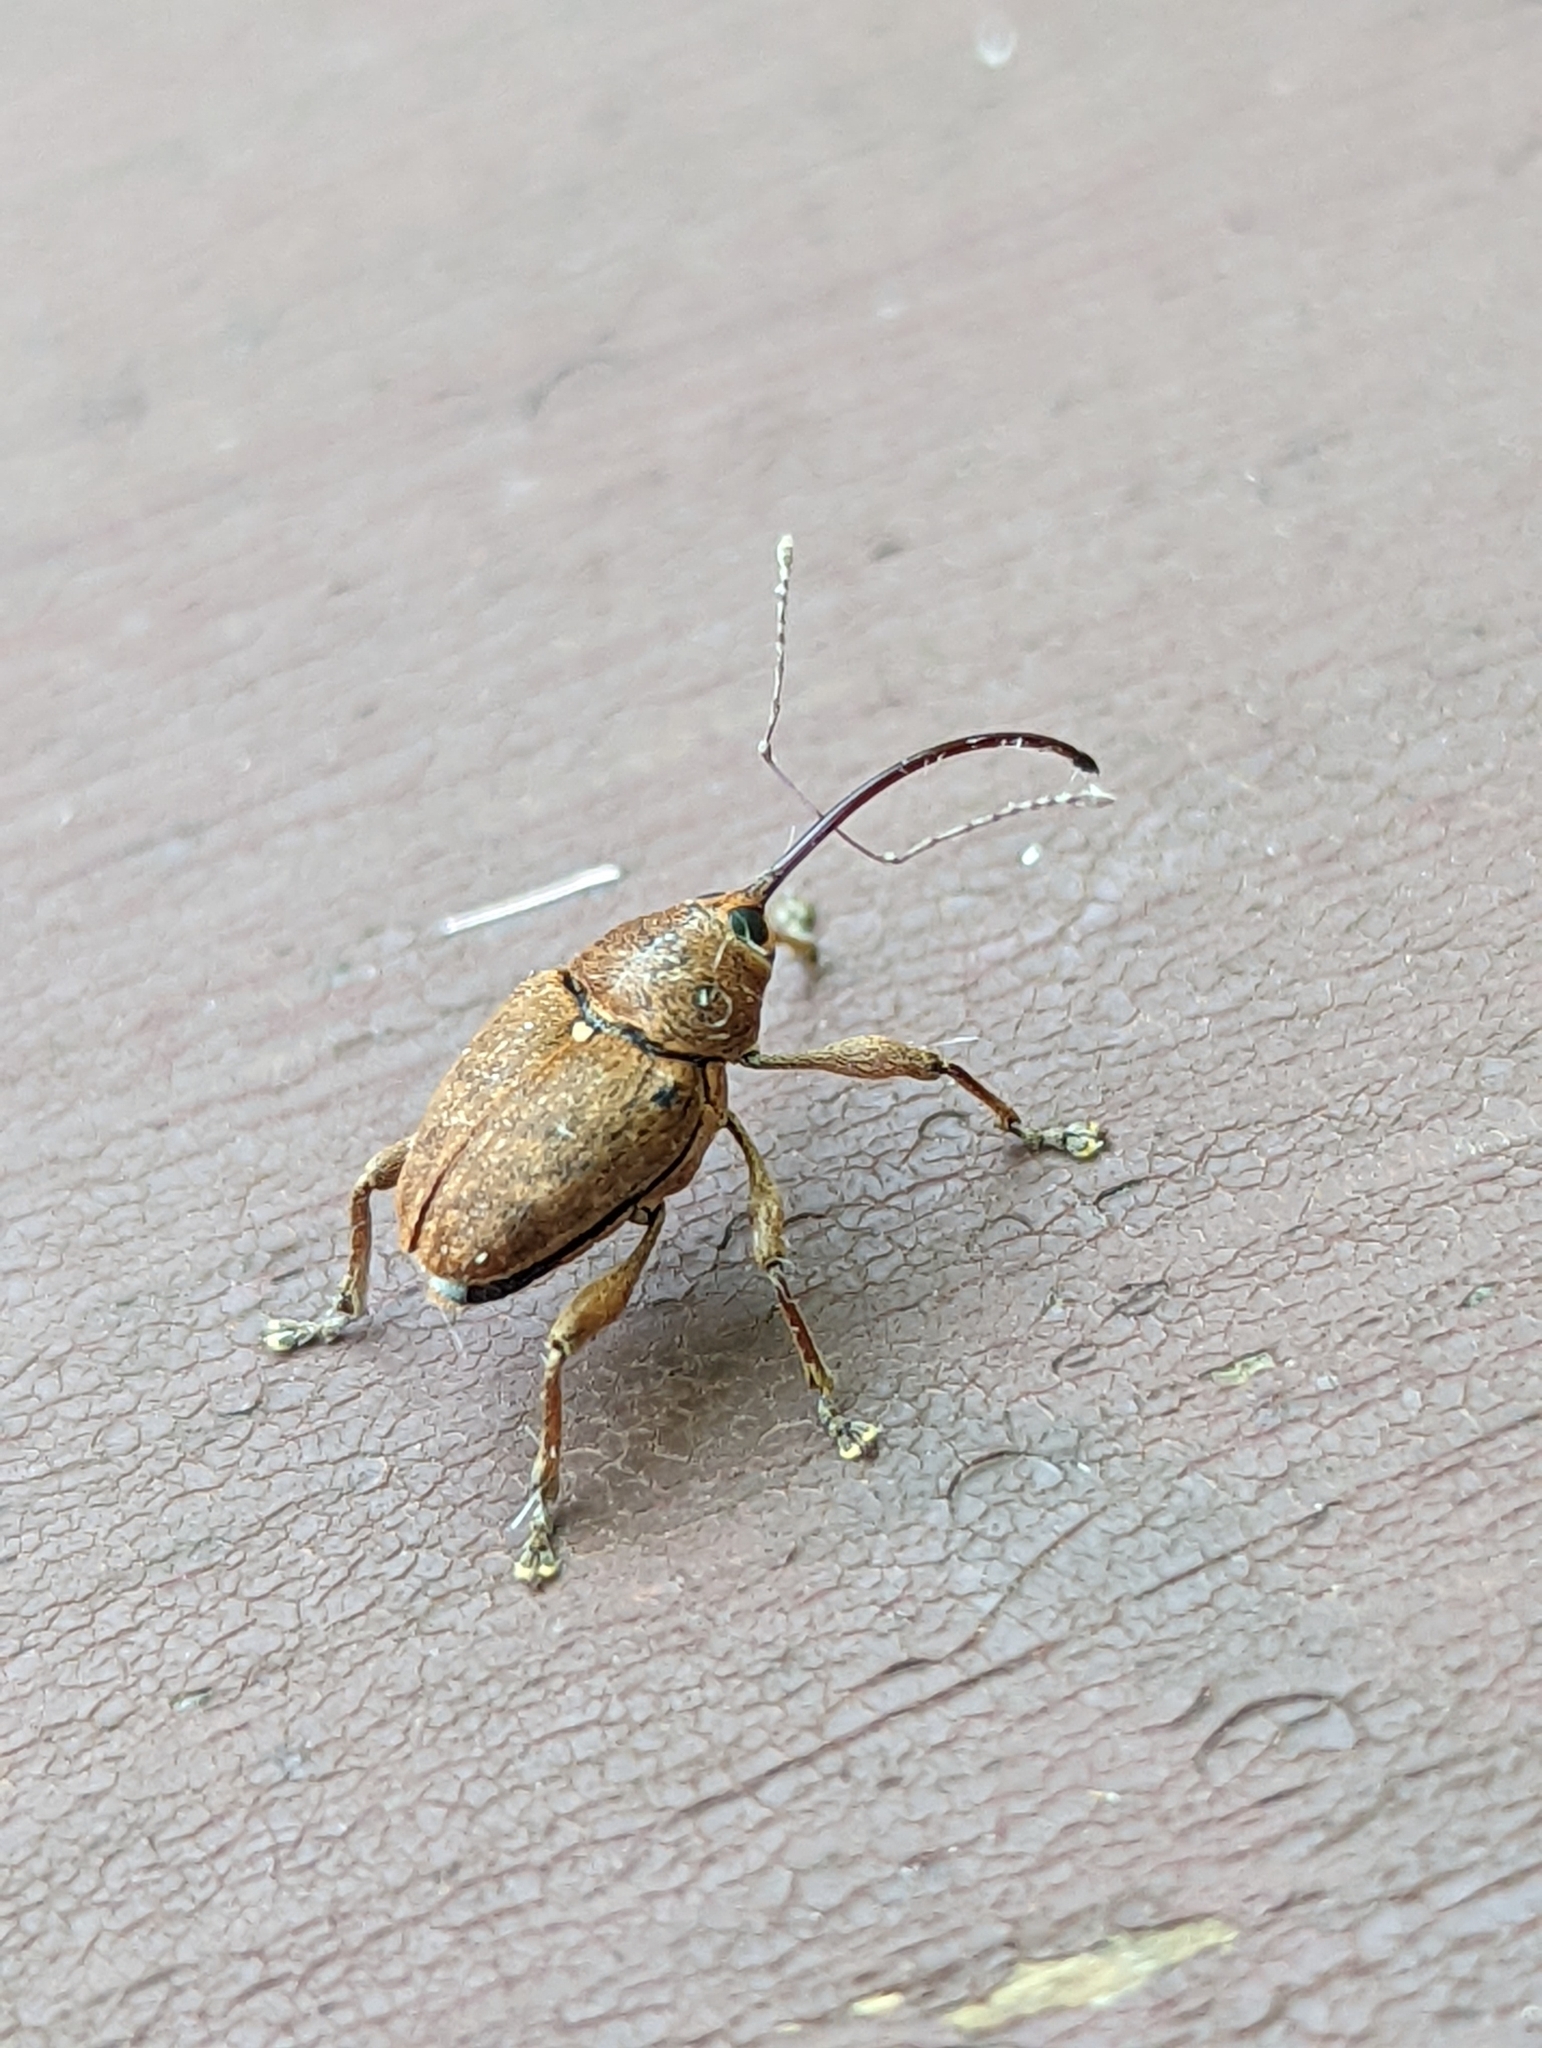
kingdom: Animalia
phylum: Arthropoda
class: Insecta
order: Coleoptera
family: Curculionidae
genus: Curculio
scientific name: Curculio glandium
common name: Acorn weevil
